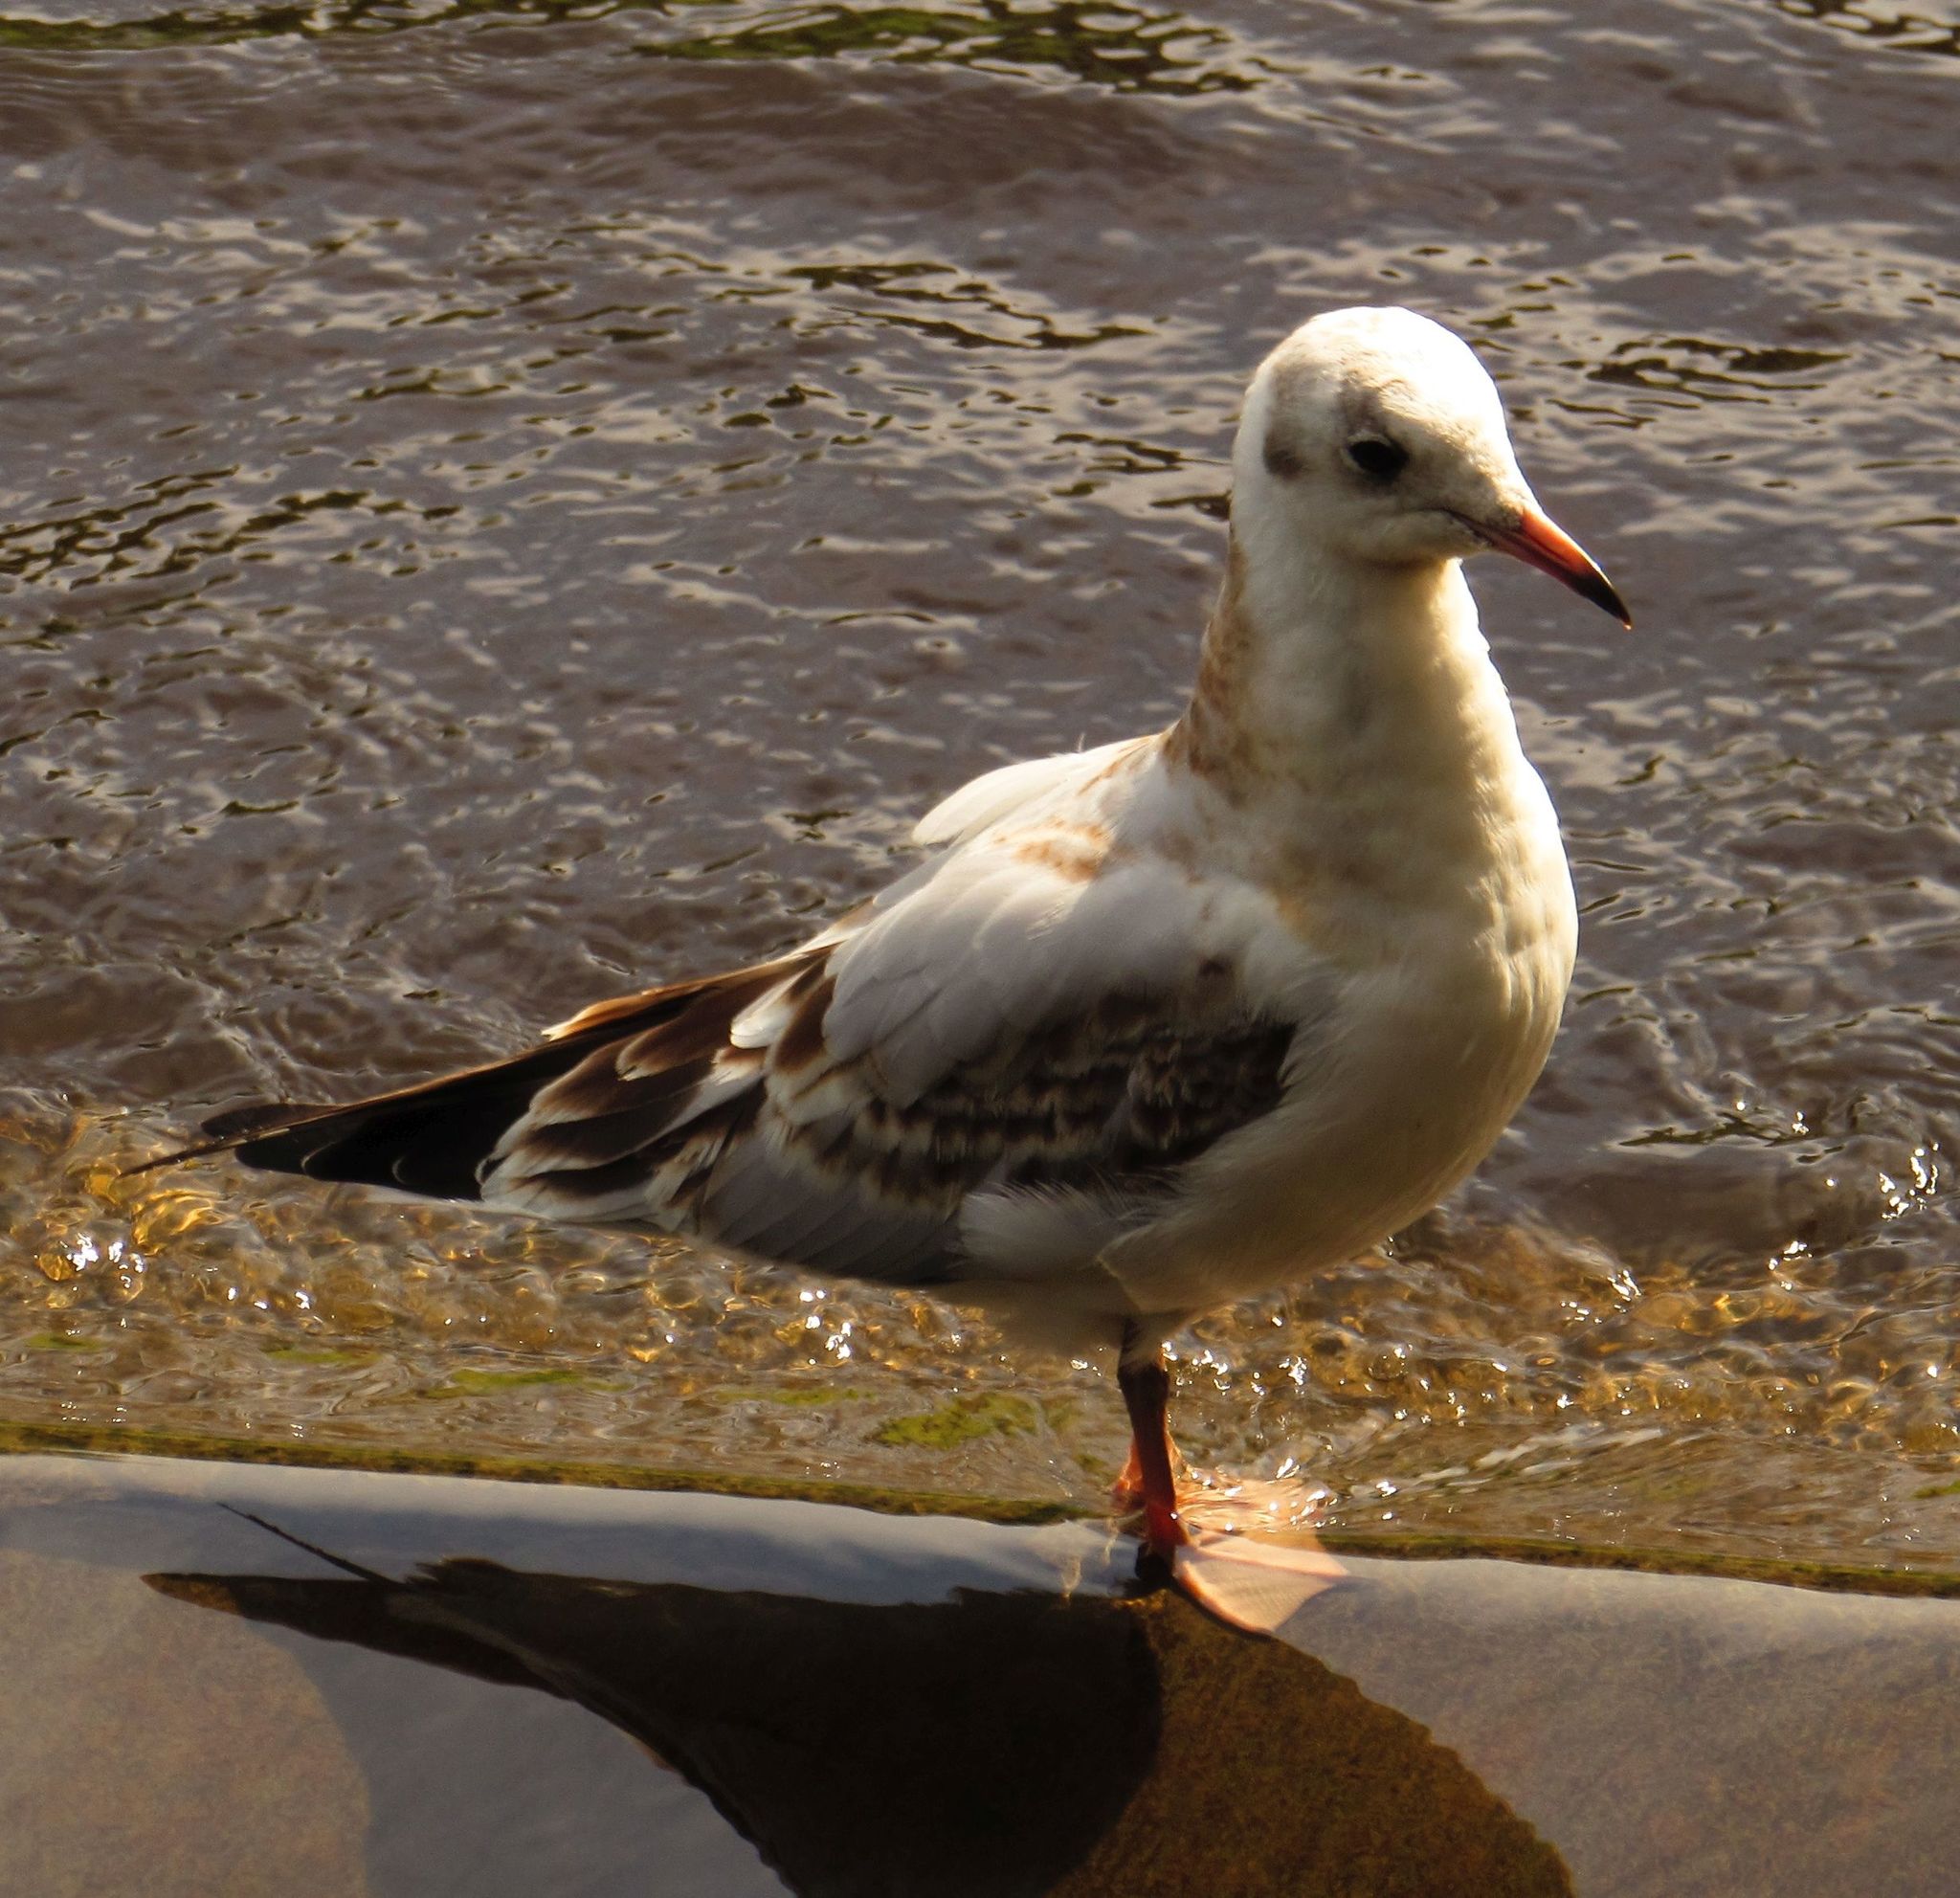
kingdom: Animalia
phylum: Chordata
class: Aves
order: Charadriiformes
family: Laridae
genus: Chroicocephalus
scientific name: Chroicocephalus ridibundus
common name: Black-headed gull
